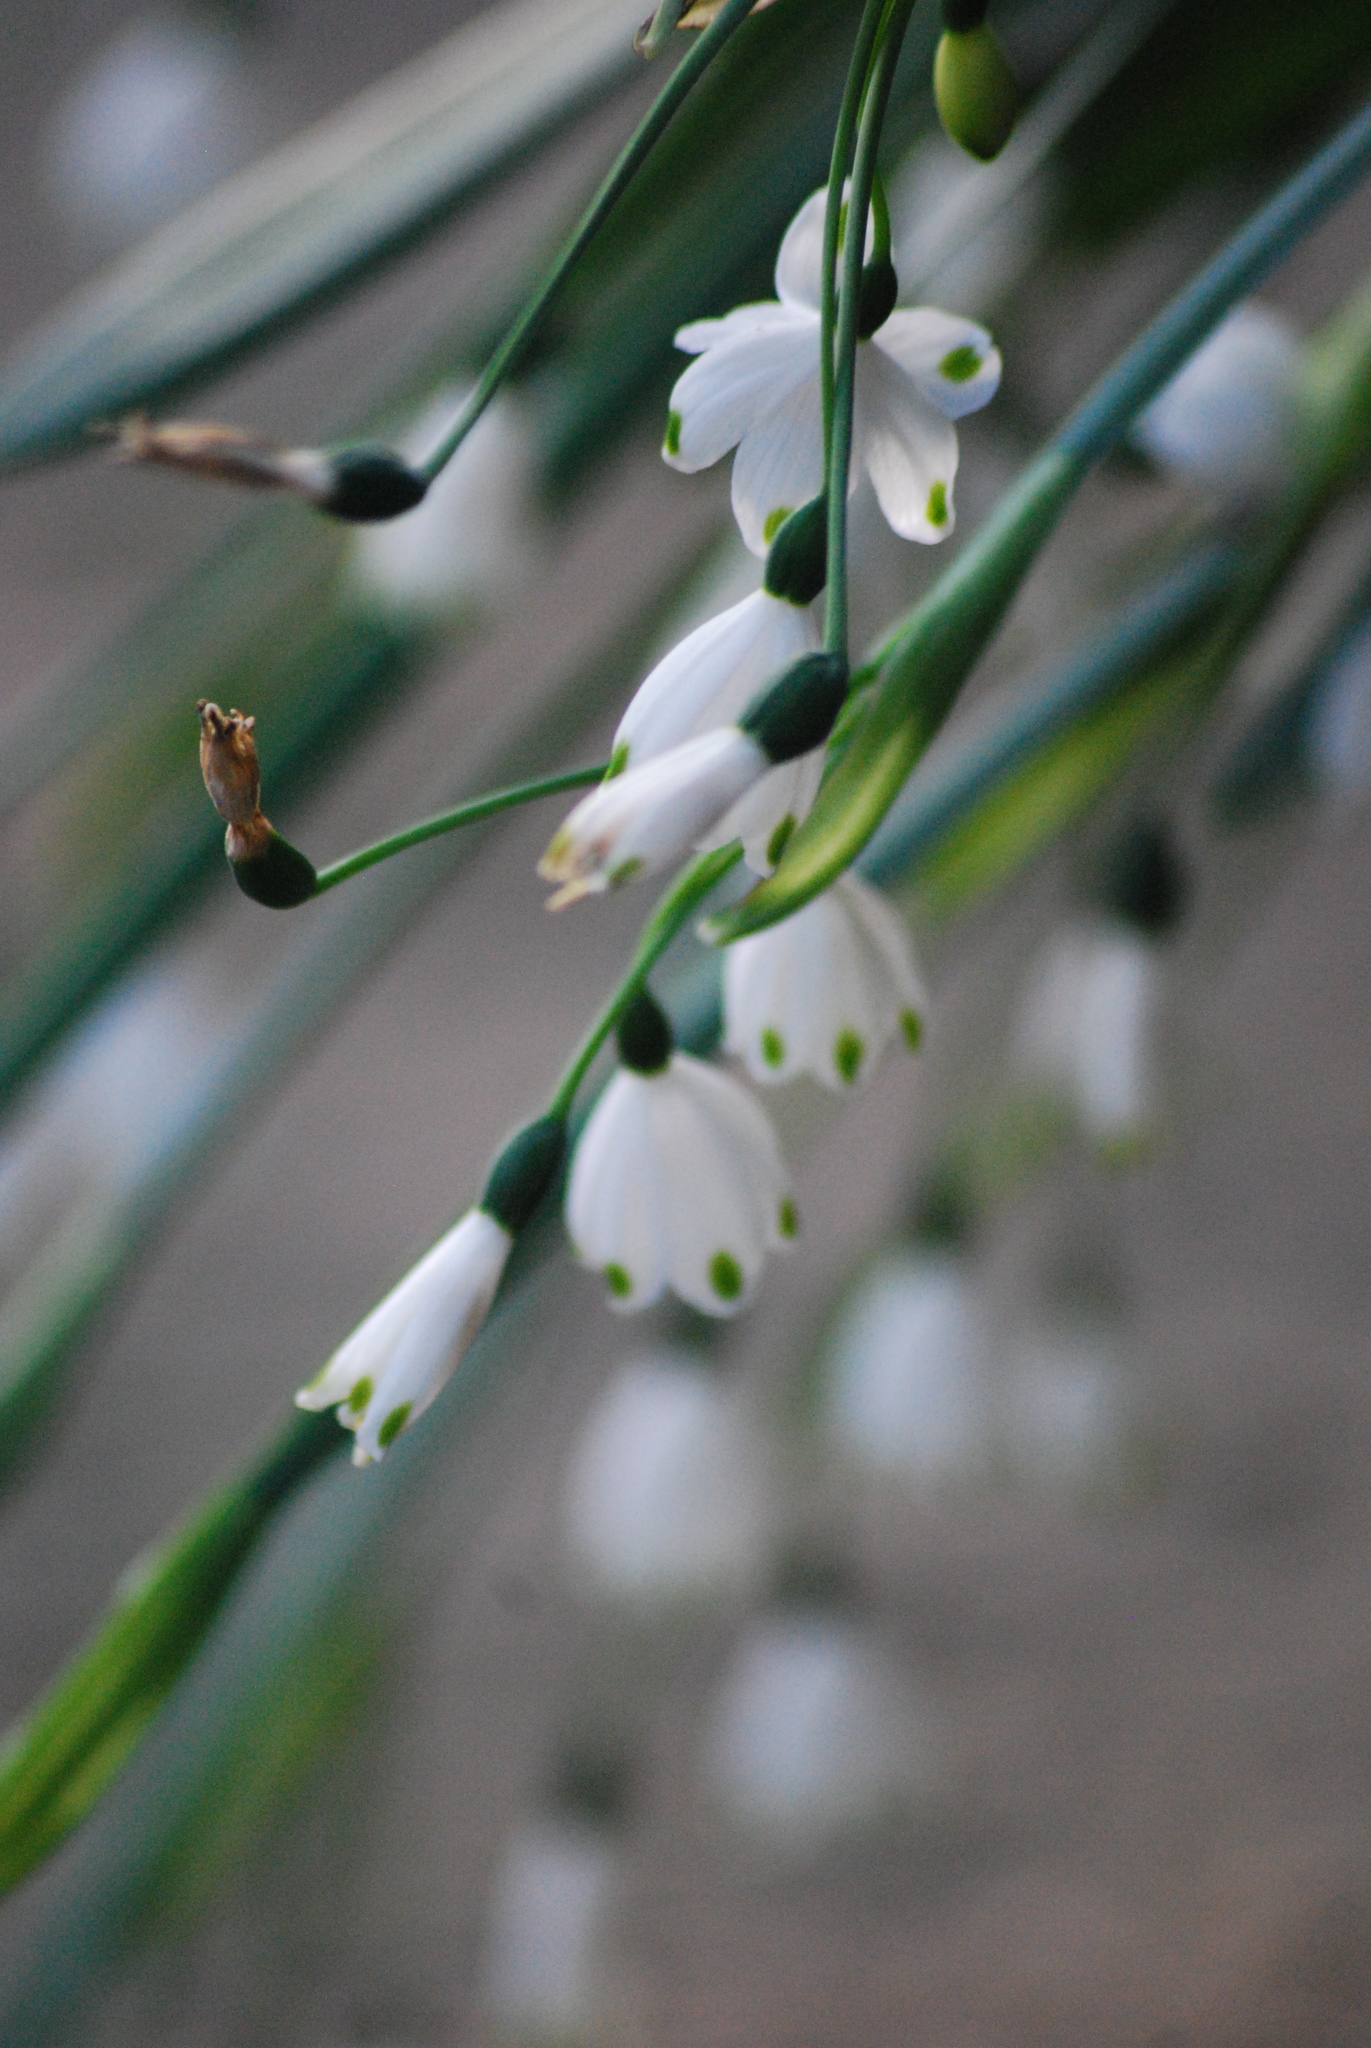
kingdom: Plantae
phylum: Tracheophyta
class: Liliopsida
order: Asparagales
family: Amaryllidaceae
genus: Leucojum
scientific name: Leucojum aestivum
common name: Summer snowflake
